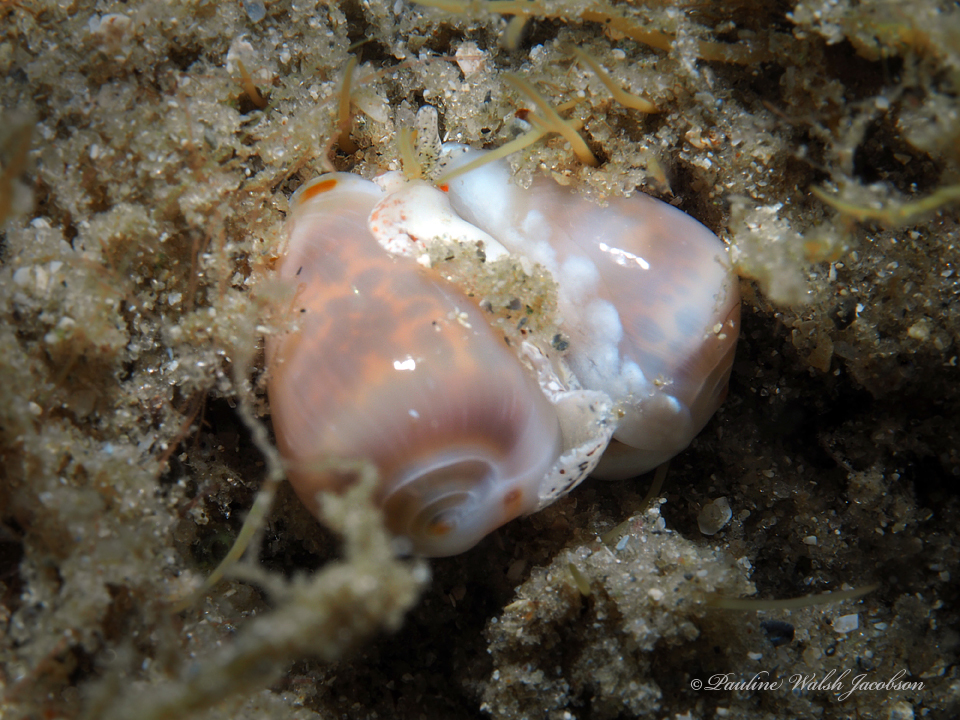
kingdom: Animalia
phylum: Mollusca
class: Gastropoda
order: Neogastropoda
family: Marginellidae
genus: Prunum
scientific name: Prunum apicinum
